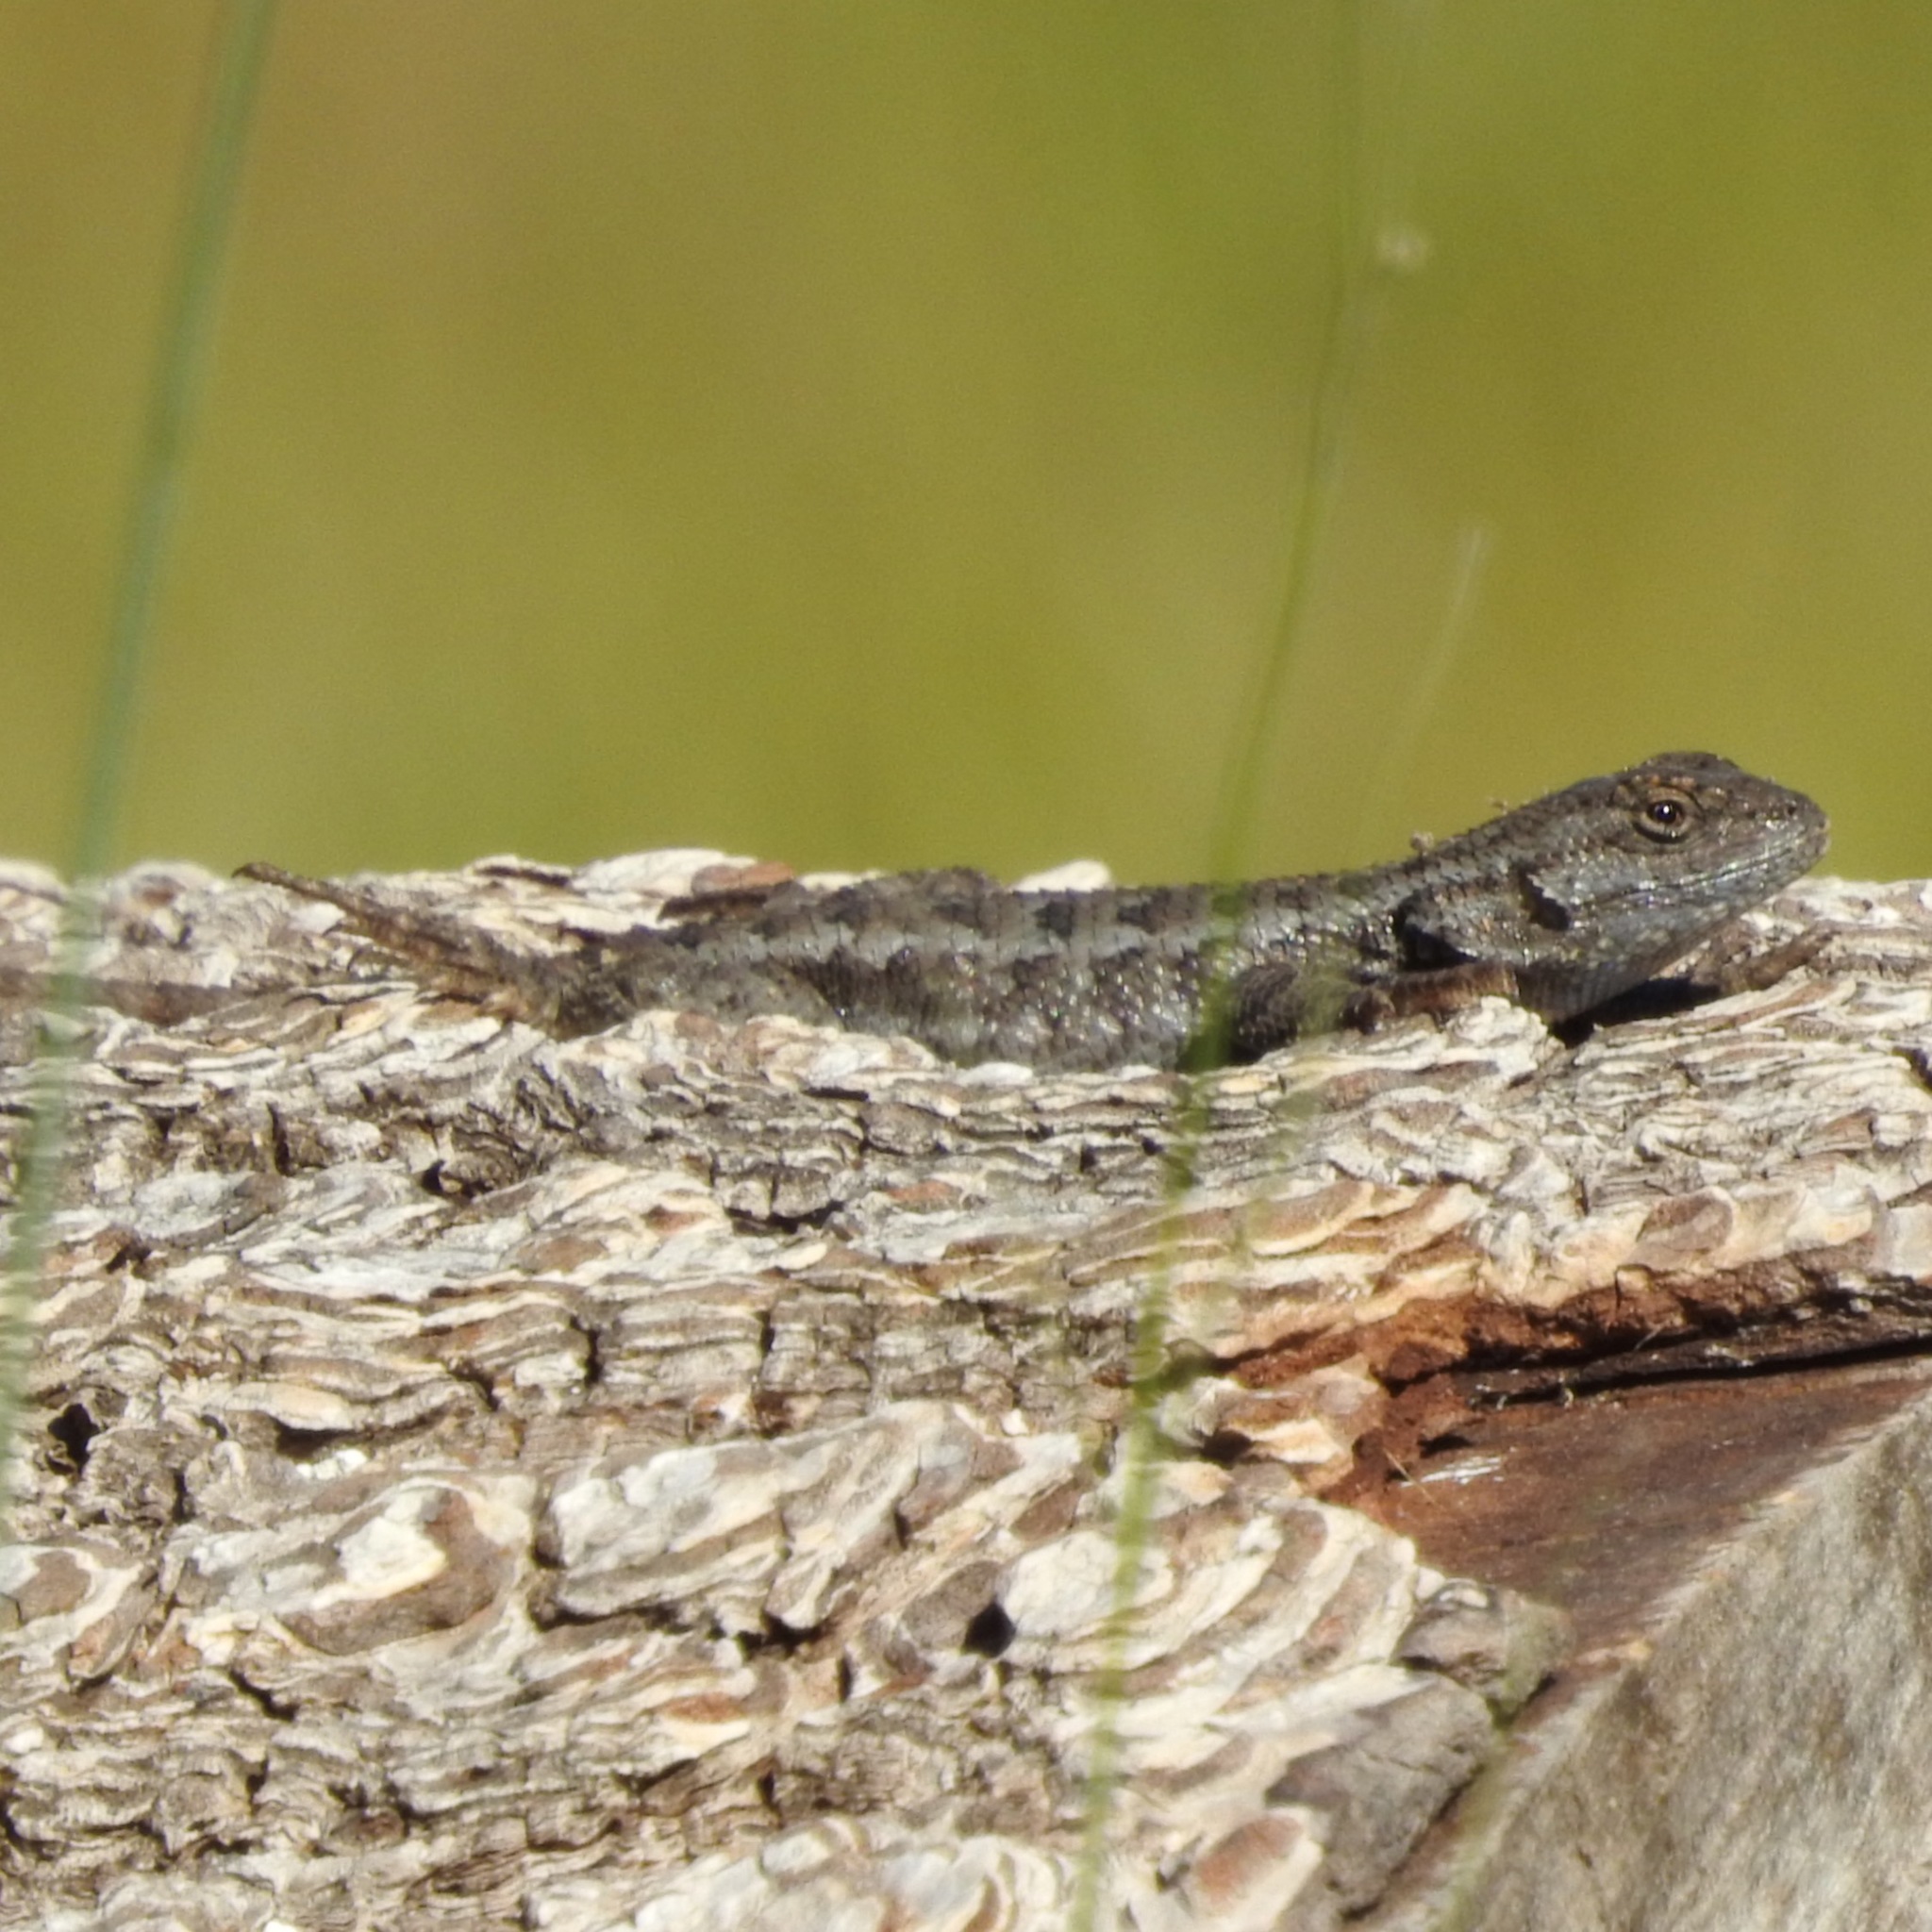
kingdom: Animalia
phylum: Chordata
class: Squamata
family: Phrynosomatidae
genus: Sceloporus
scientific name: Sceloporus occidentalis
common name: Western fence lizard
